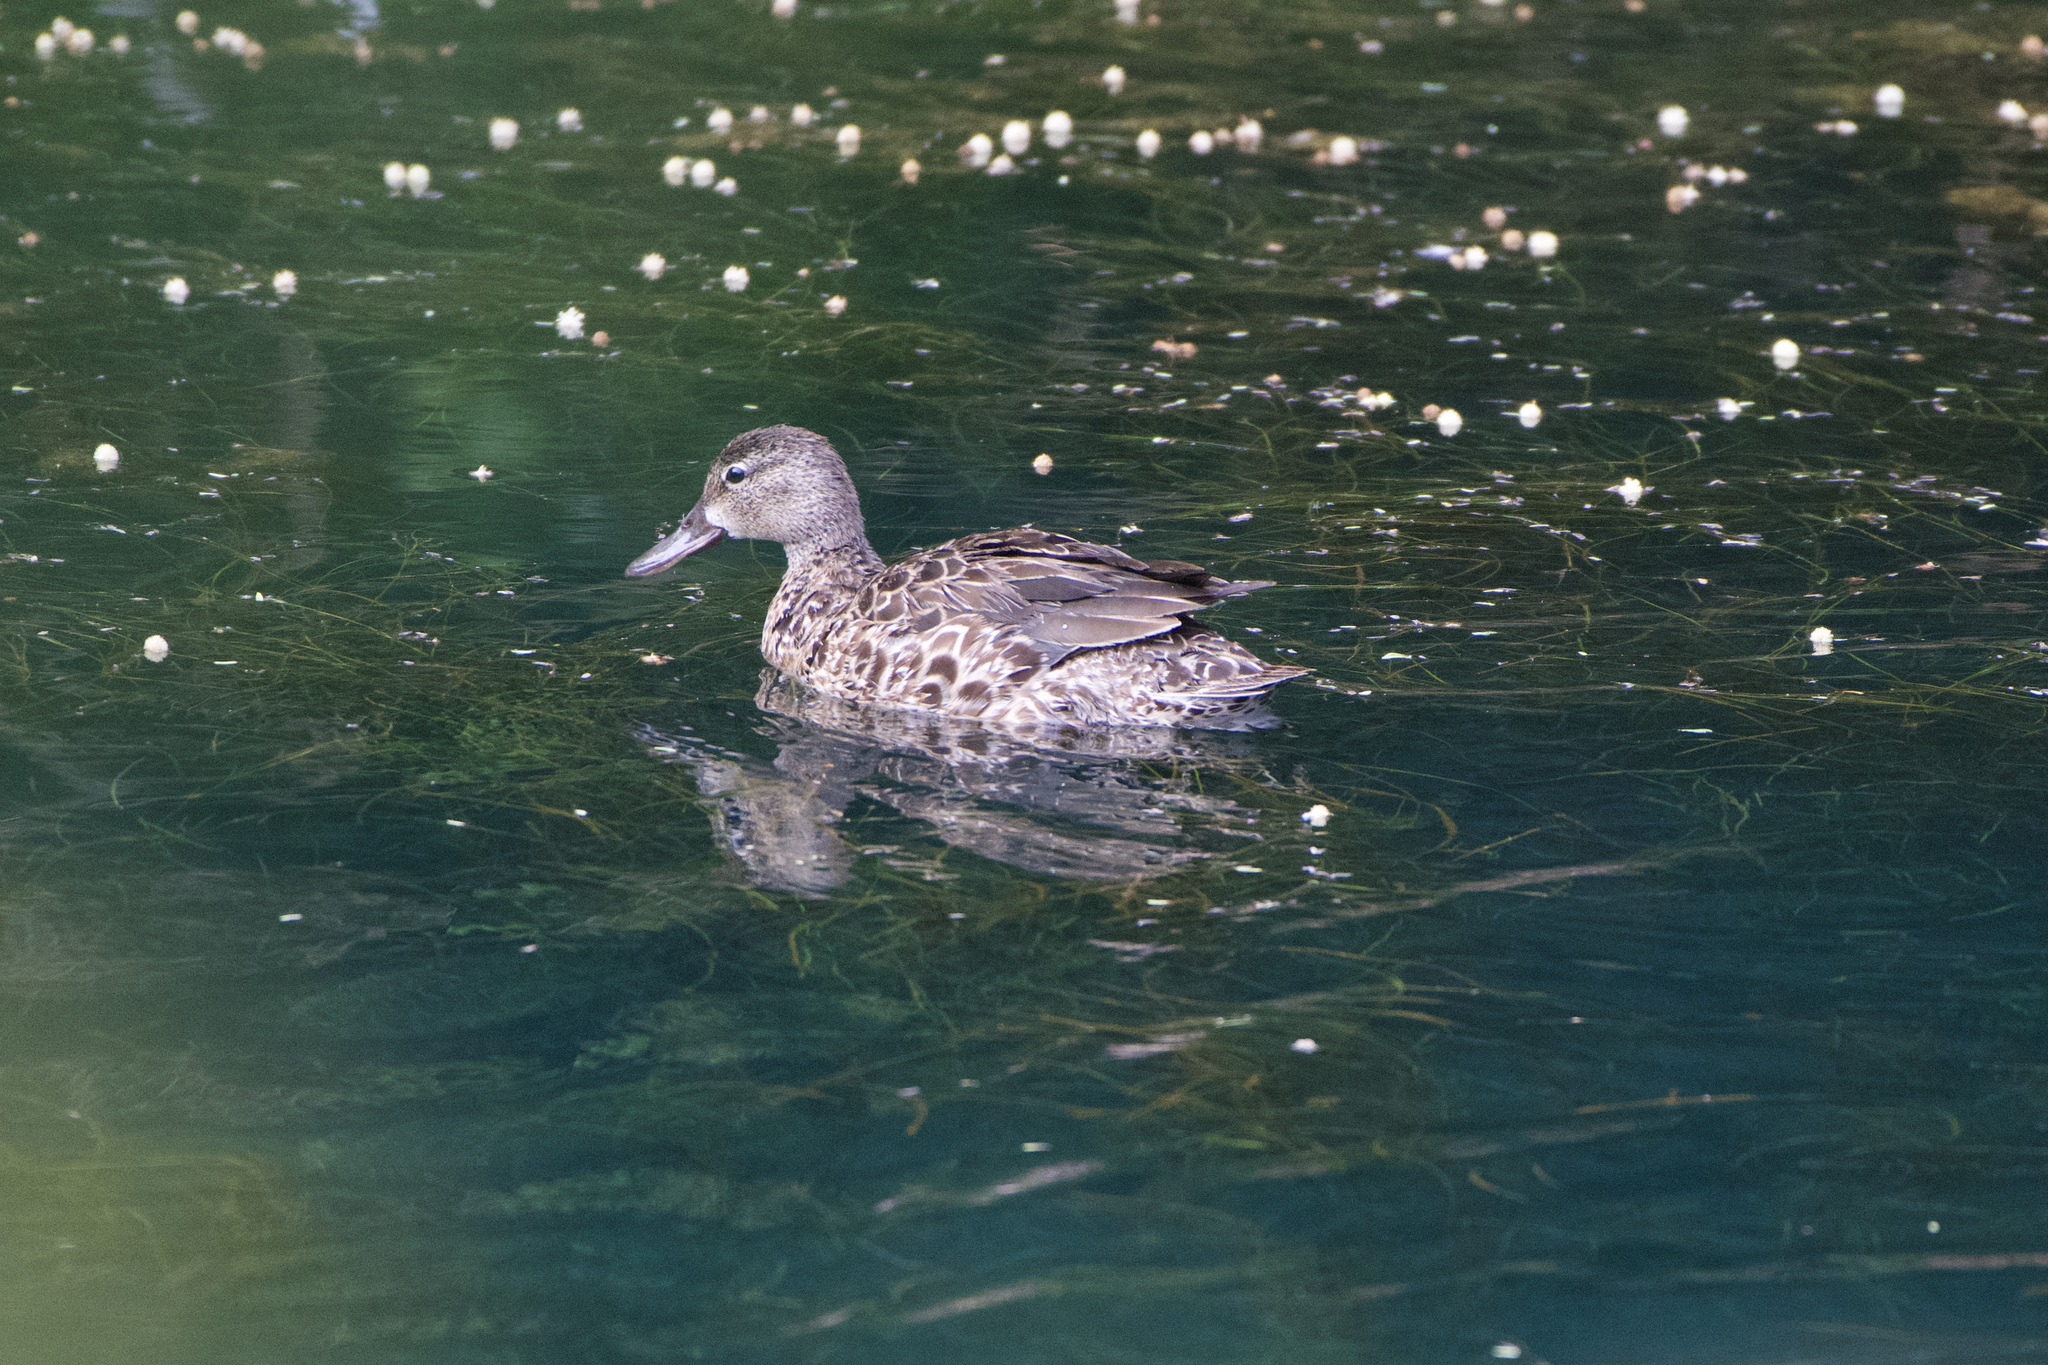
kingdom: Animalia
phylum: Chordata
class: Aves
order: Anseriformes
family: Anatidae
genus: Spatula
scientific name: Spatula discors
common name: Blue-winged teal
